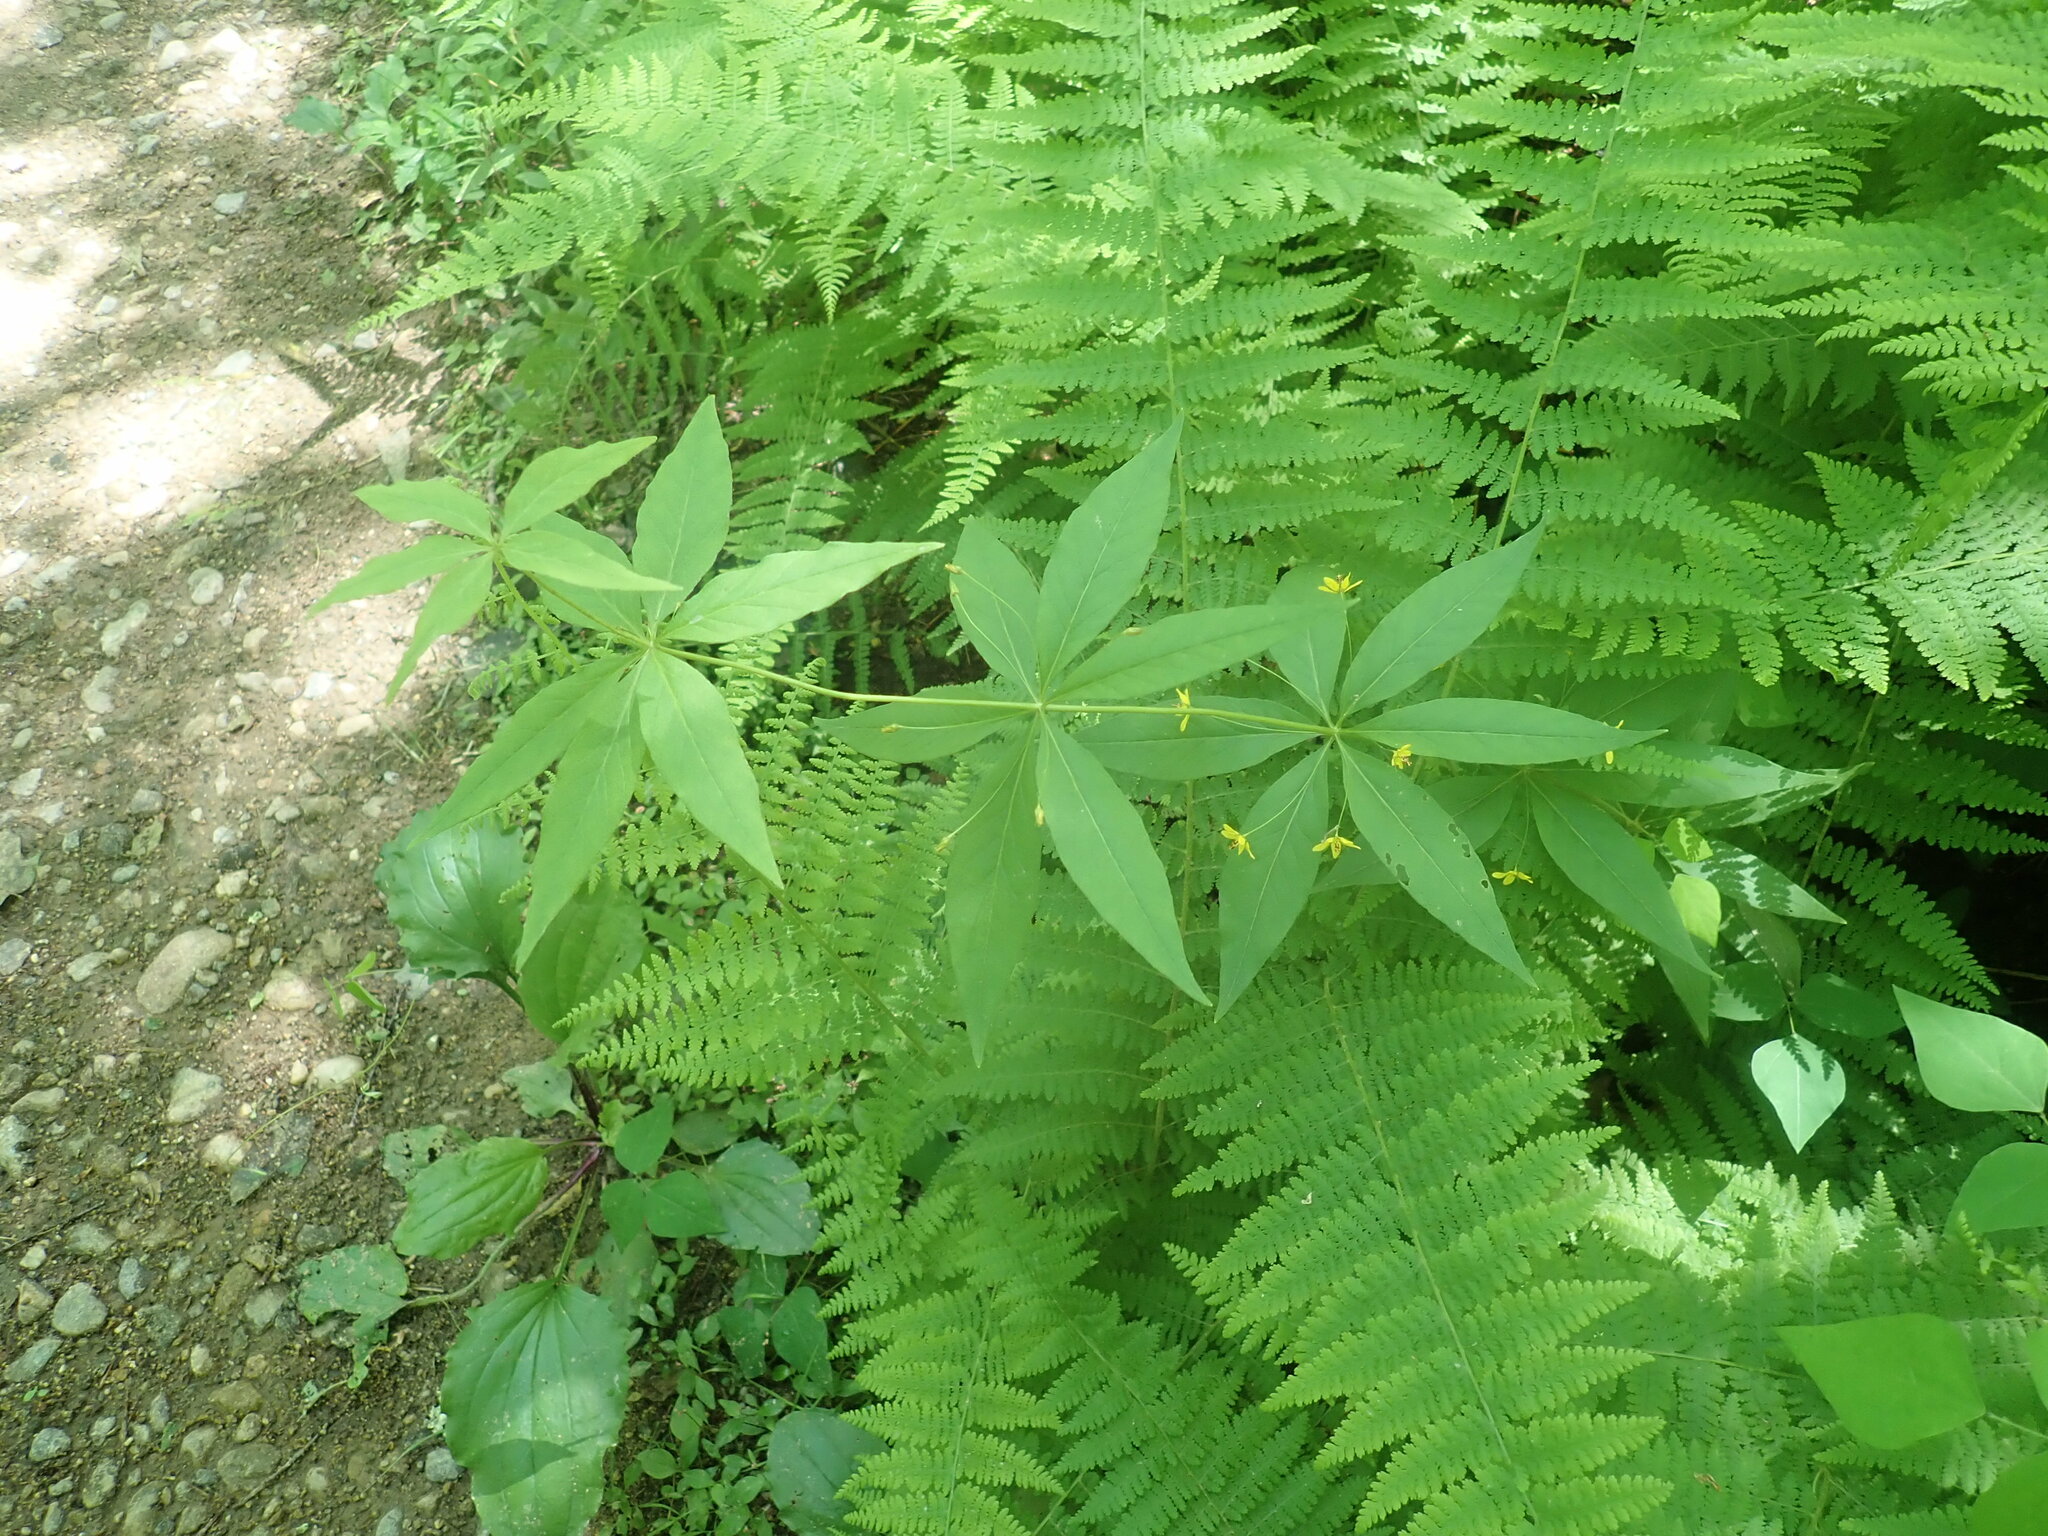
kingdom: Plantae
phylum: Tracheophyta
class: Magnoliopsida
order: Ericales
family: Primulaceae
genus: Lysimachia
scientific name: Lysimachia quadrifolia
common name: Whorled loosestrife
